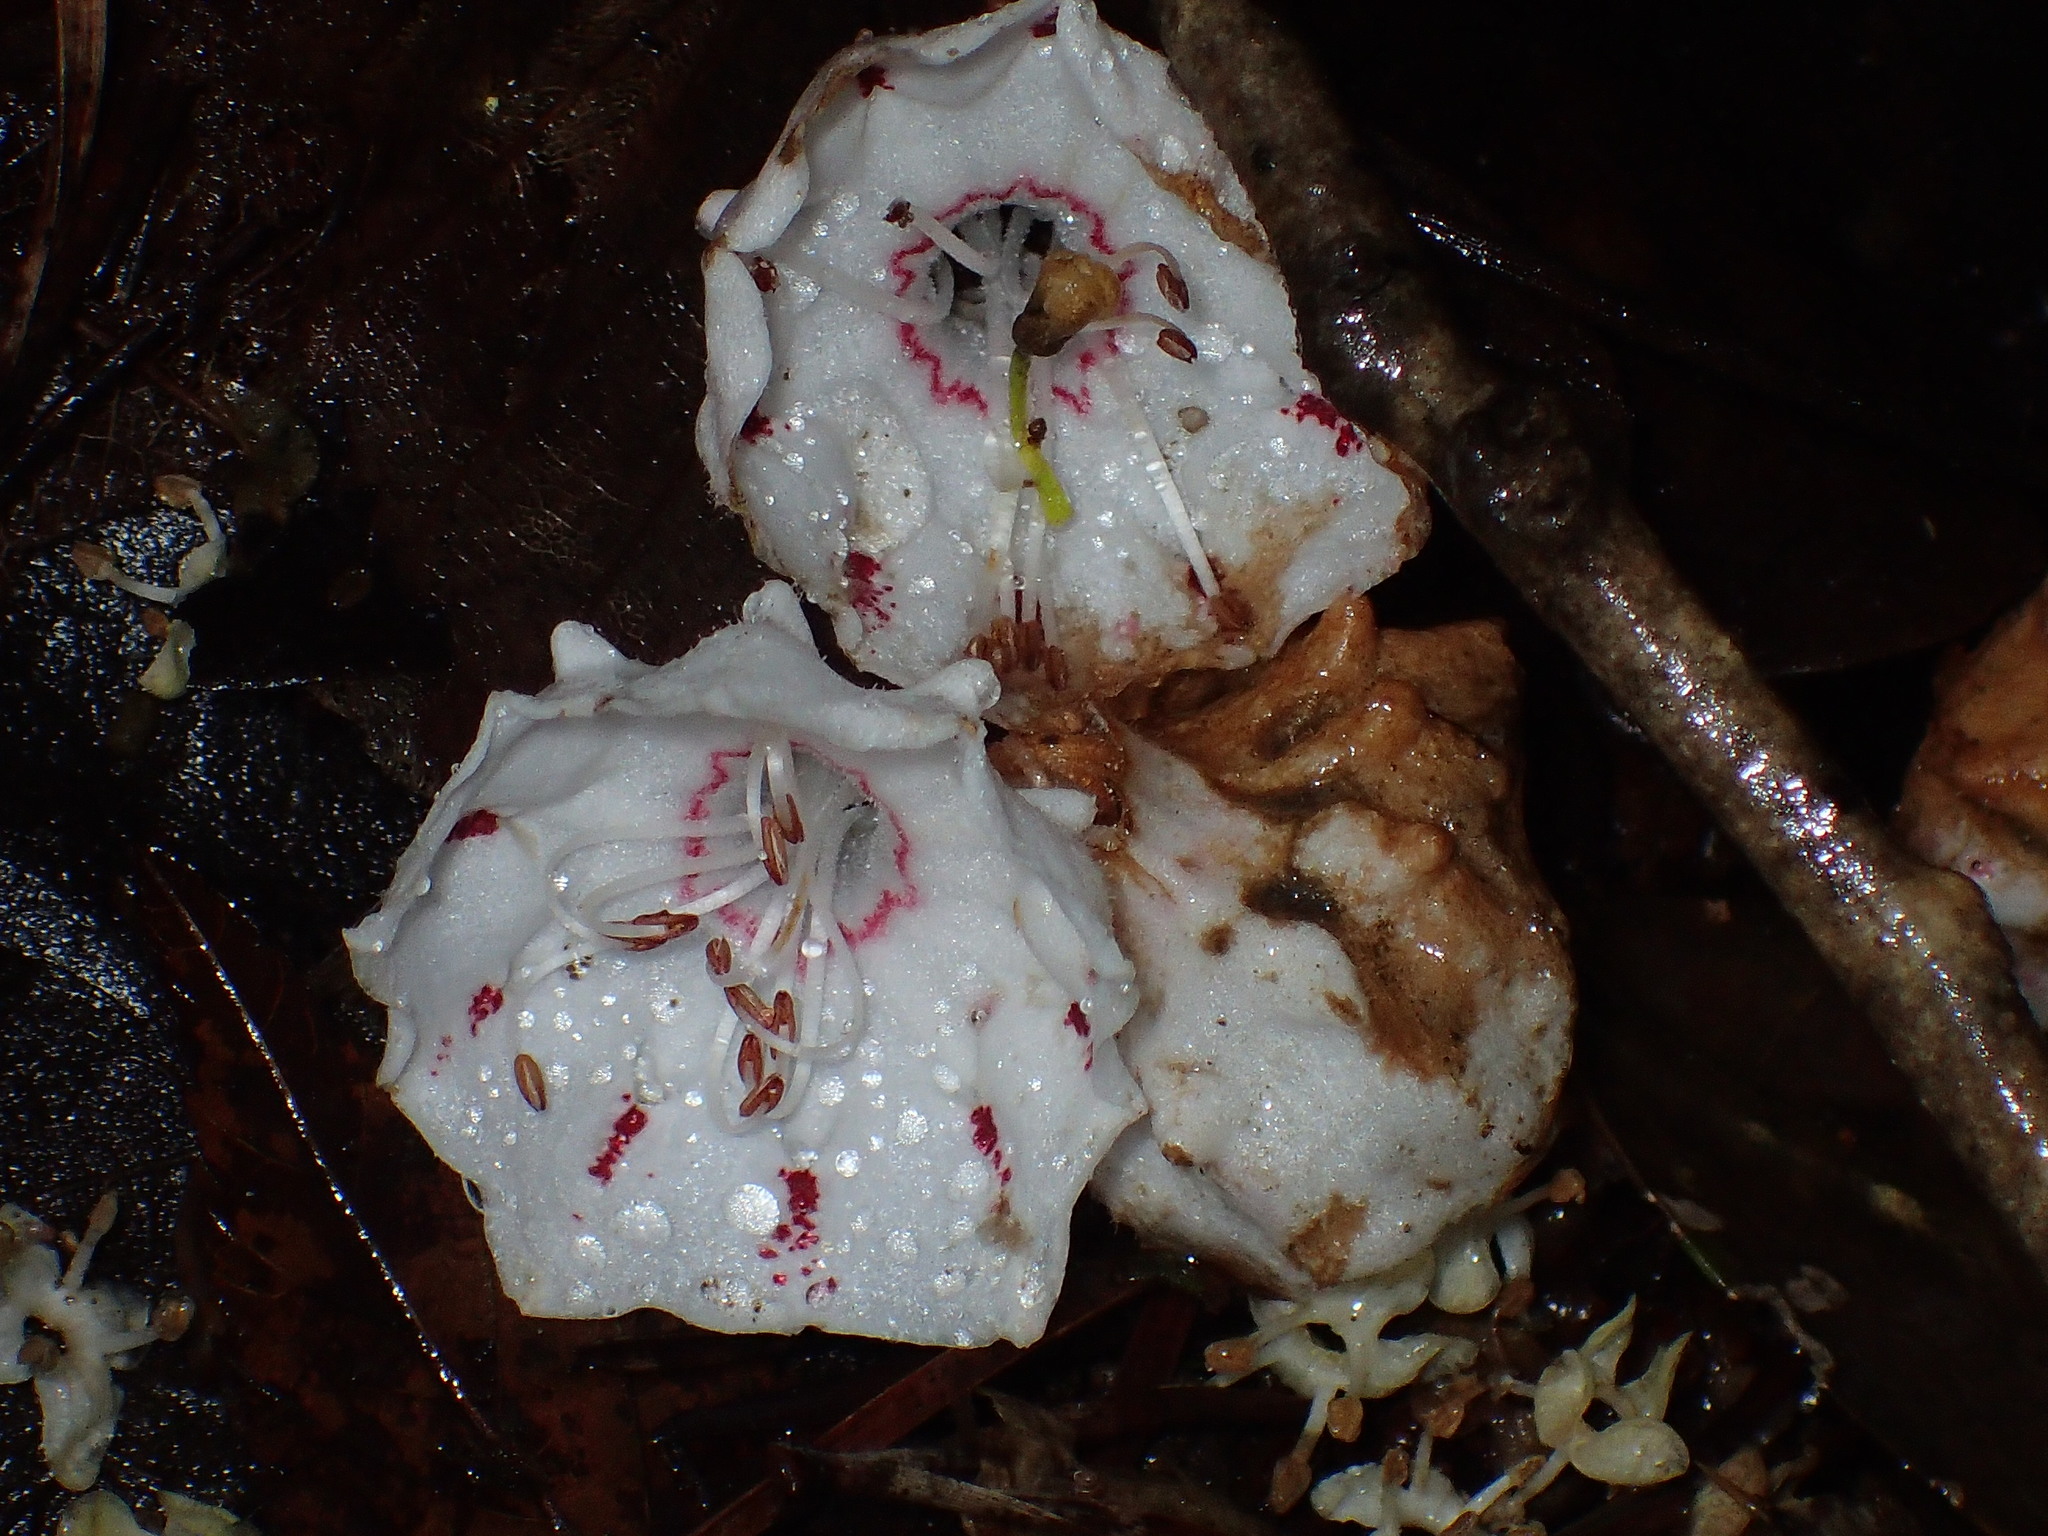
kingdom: Plantae
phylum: Tracheophyta
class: Magnoliopsida
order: Ericales
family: Ericaceae
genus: Kalmia
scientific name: Kalmia latifolia
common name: Mountain-laurel
